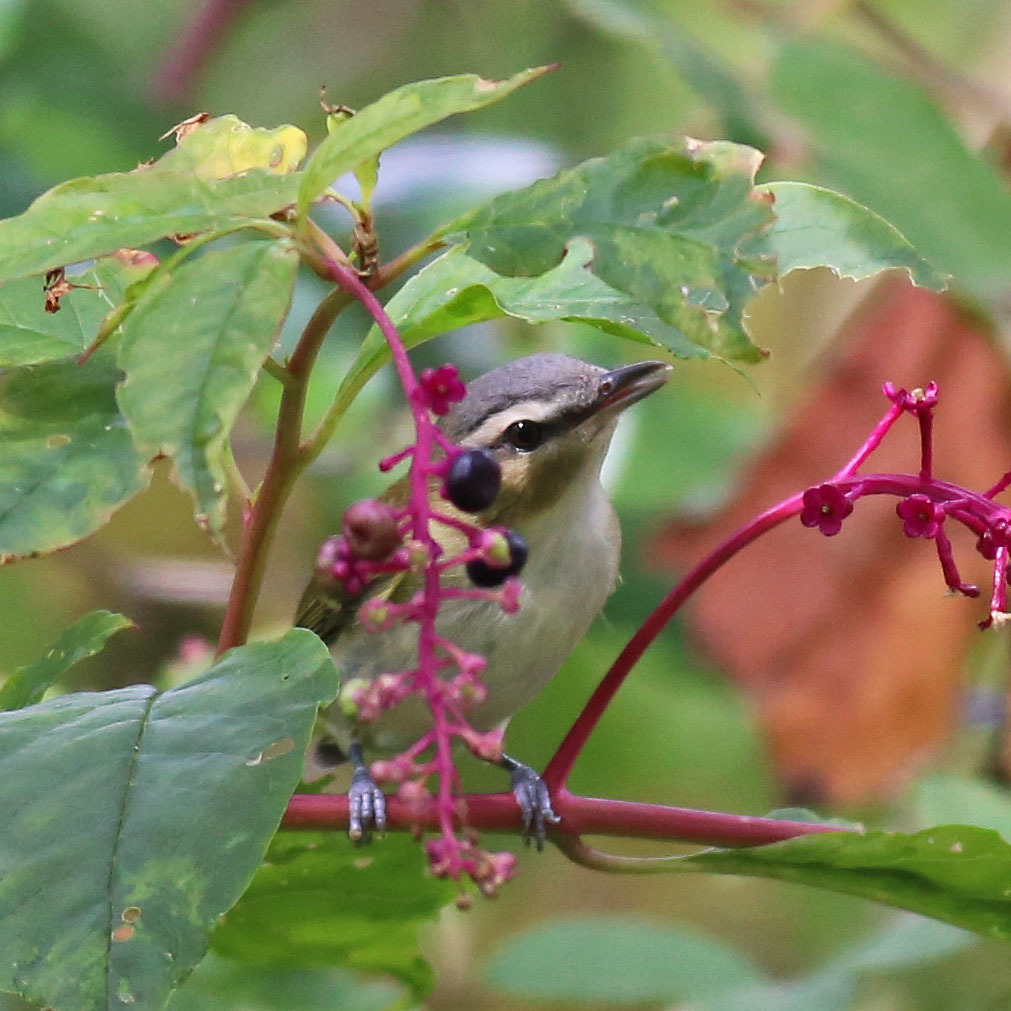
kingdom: Animalia
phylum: Chordata
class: Aves
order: Passeriformes
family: Vireonidae
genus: Vireo
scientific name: Vireo olivaceus
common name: Red-eyed vireo
